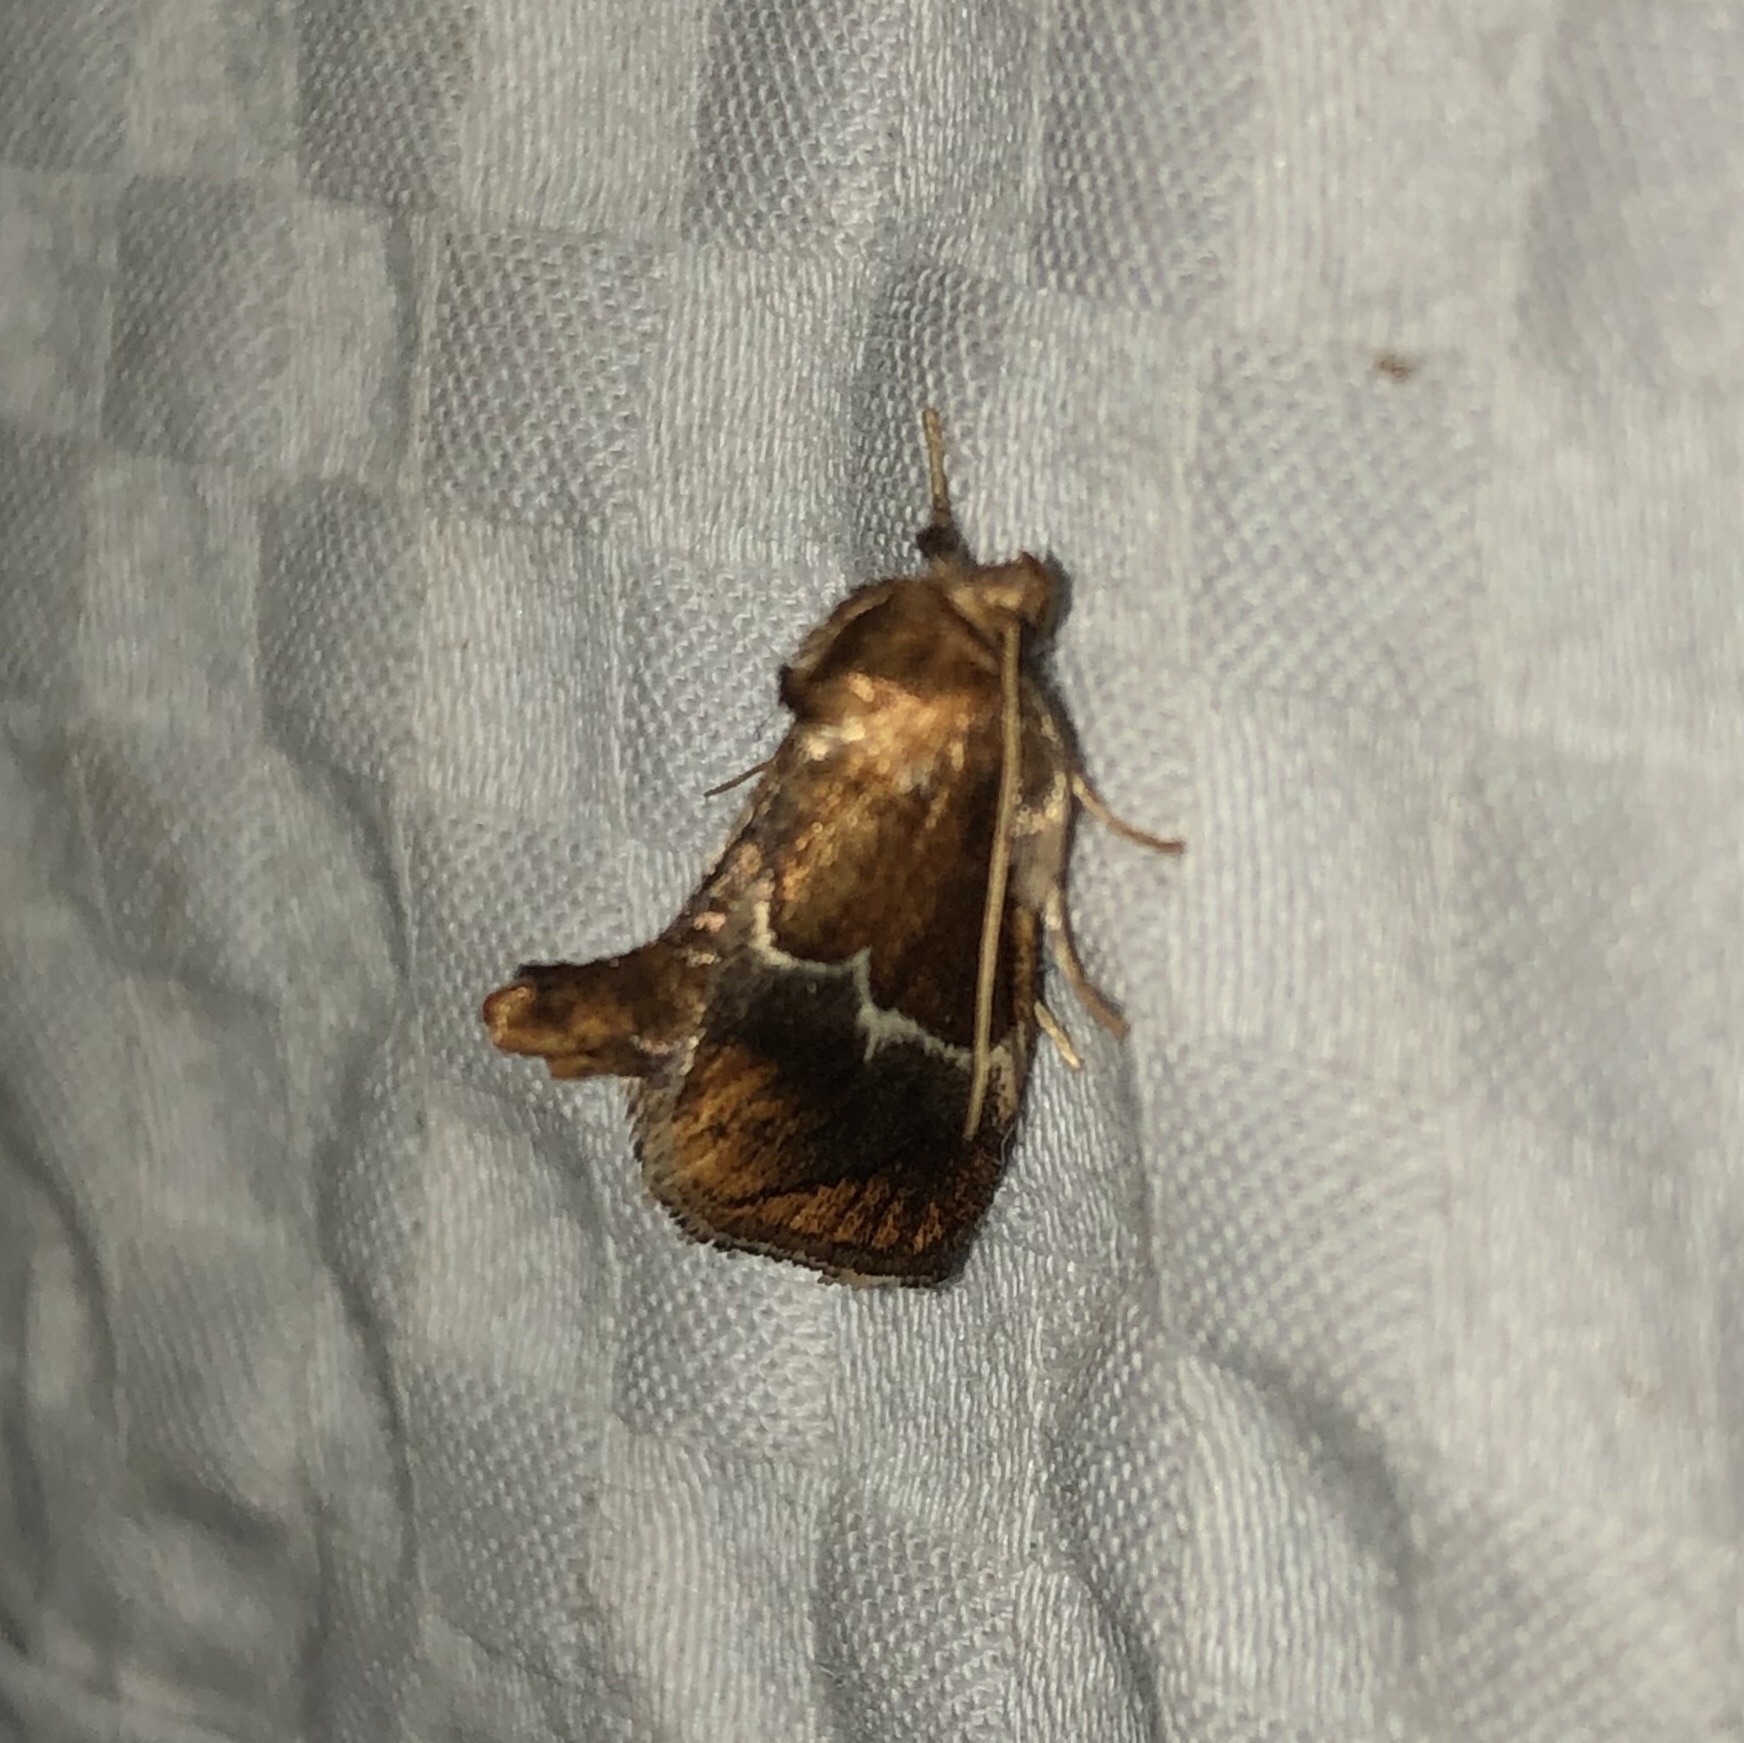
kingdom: Animalia
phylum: Arthropoda
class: Insecta
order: Lepidoptera
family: Limacodidae
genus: Lithacodes
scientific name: Lithacodes fasciola
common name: Yellow-shouldered slug moth
